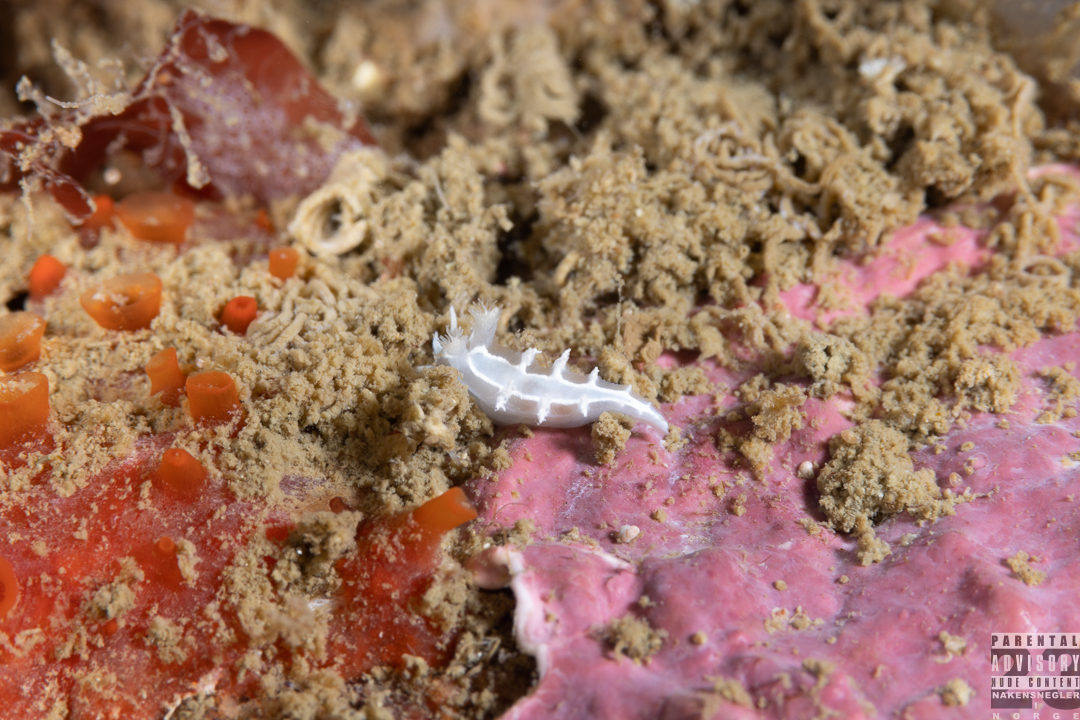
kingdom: Animalia
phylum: Mollusca
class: Gastropoda
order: Nudibranchia
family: Tritoniidae
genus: Duvaucelia
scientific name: Duvaucelia lineata
